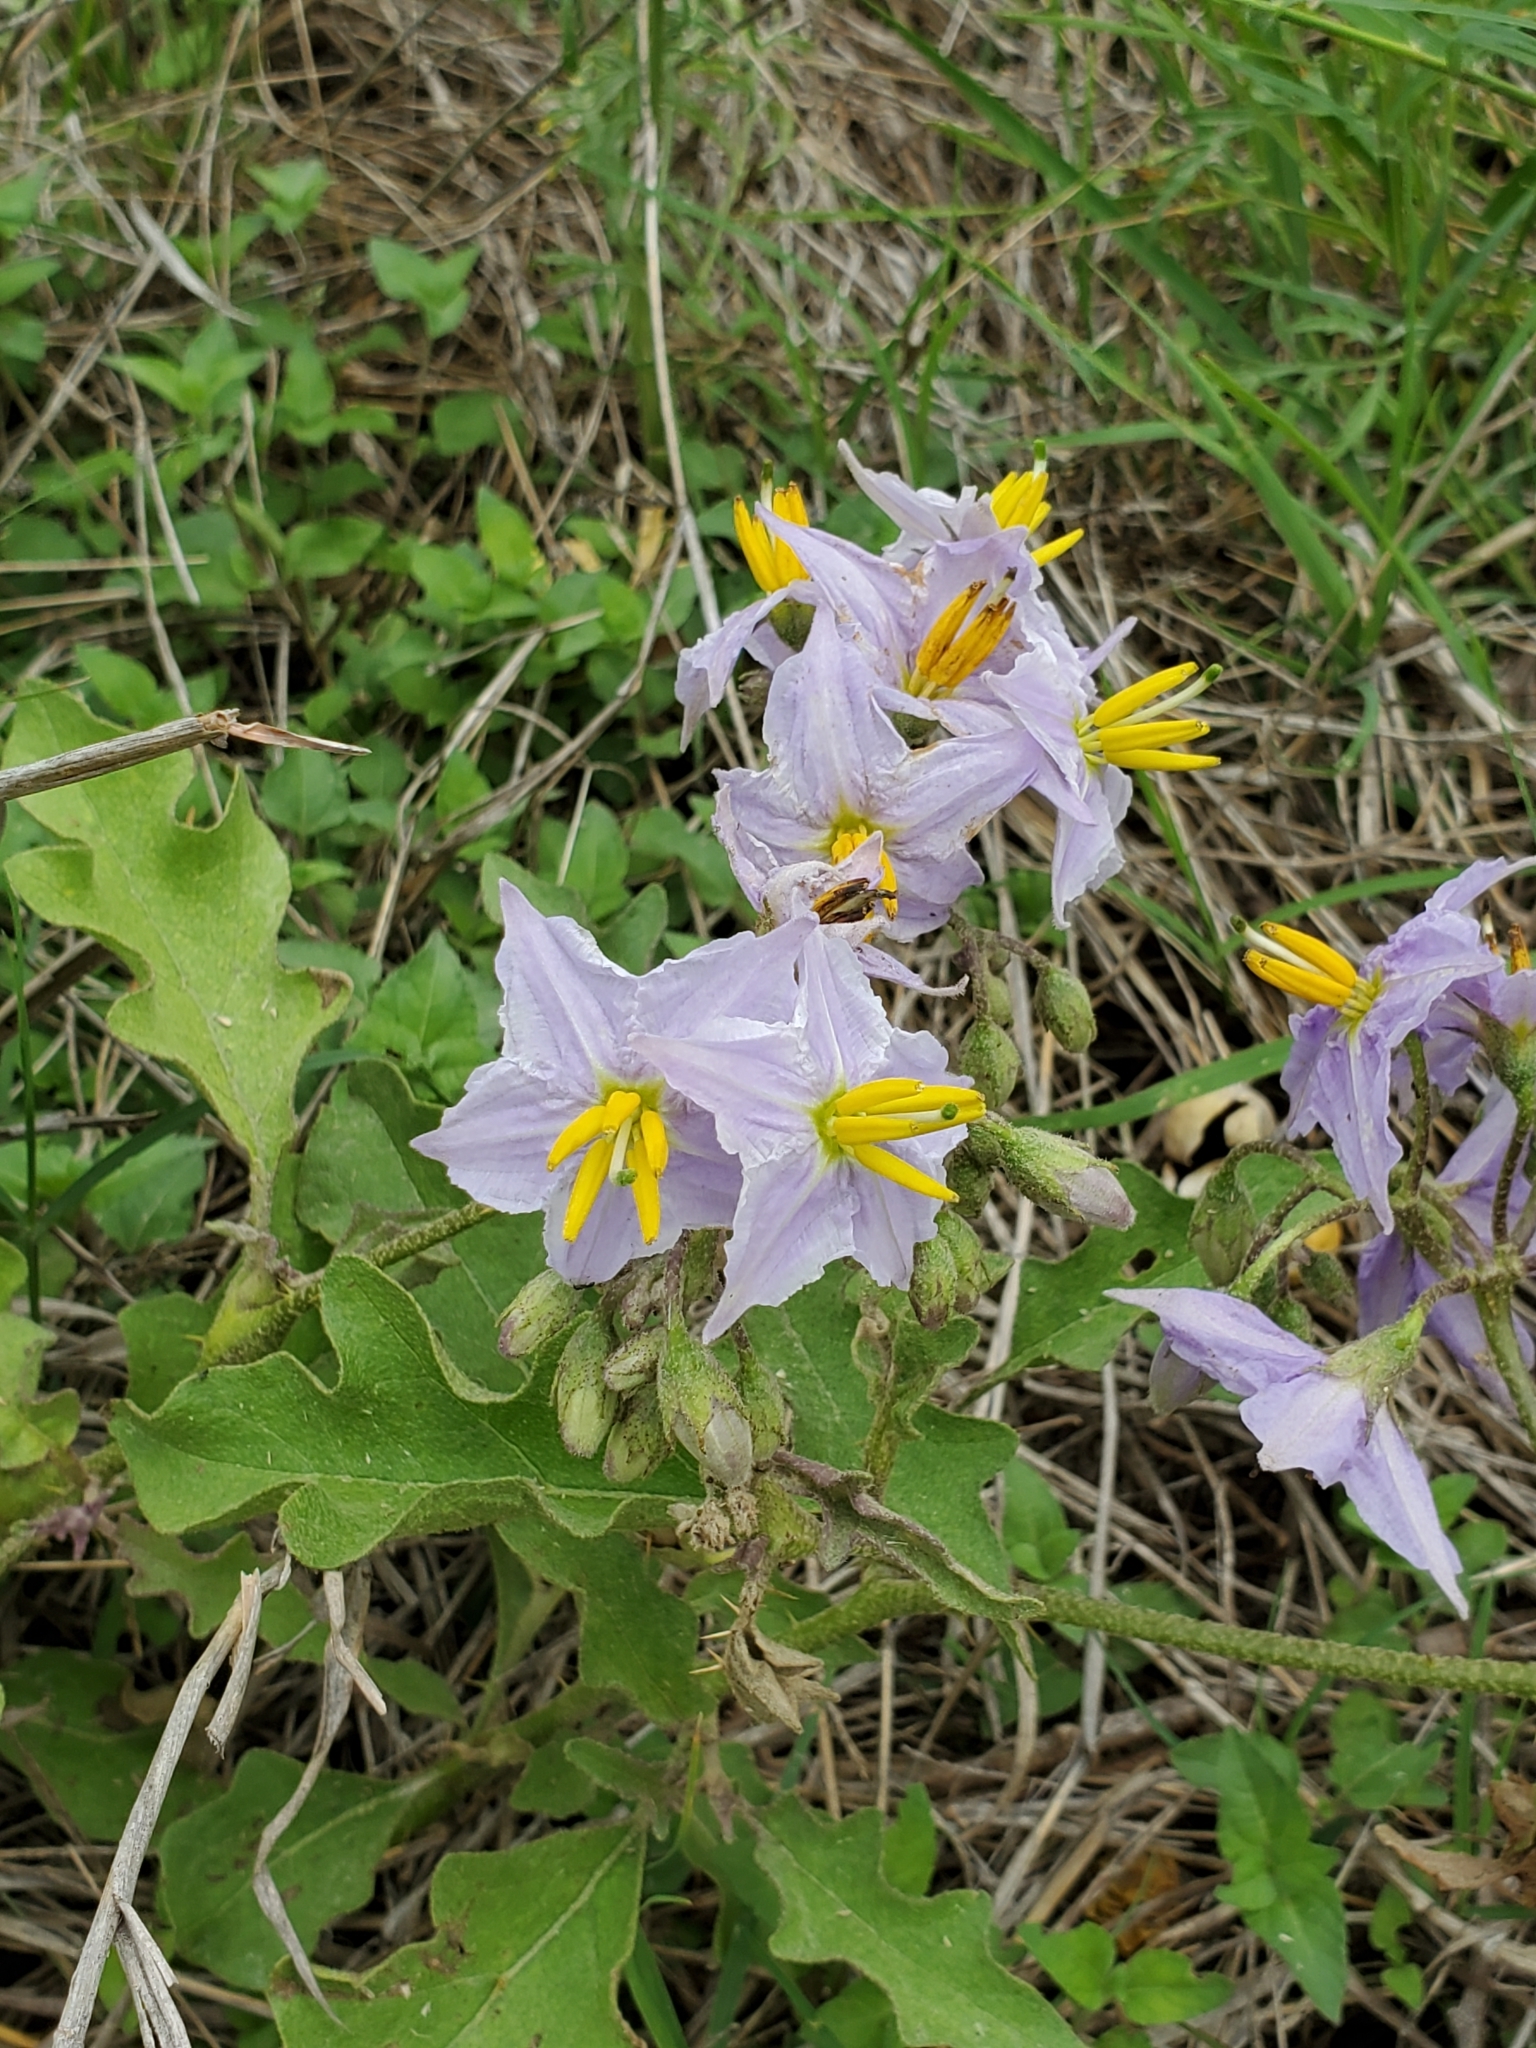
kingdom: Plantae
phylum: Tracheophyta
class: Magnoliopsida
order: Solanales
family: Solanaceae
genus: Solanum
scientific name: Solanum dimidiatum
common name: Carolina horse-nettle
